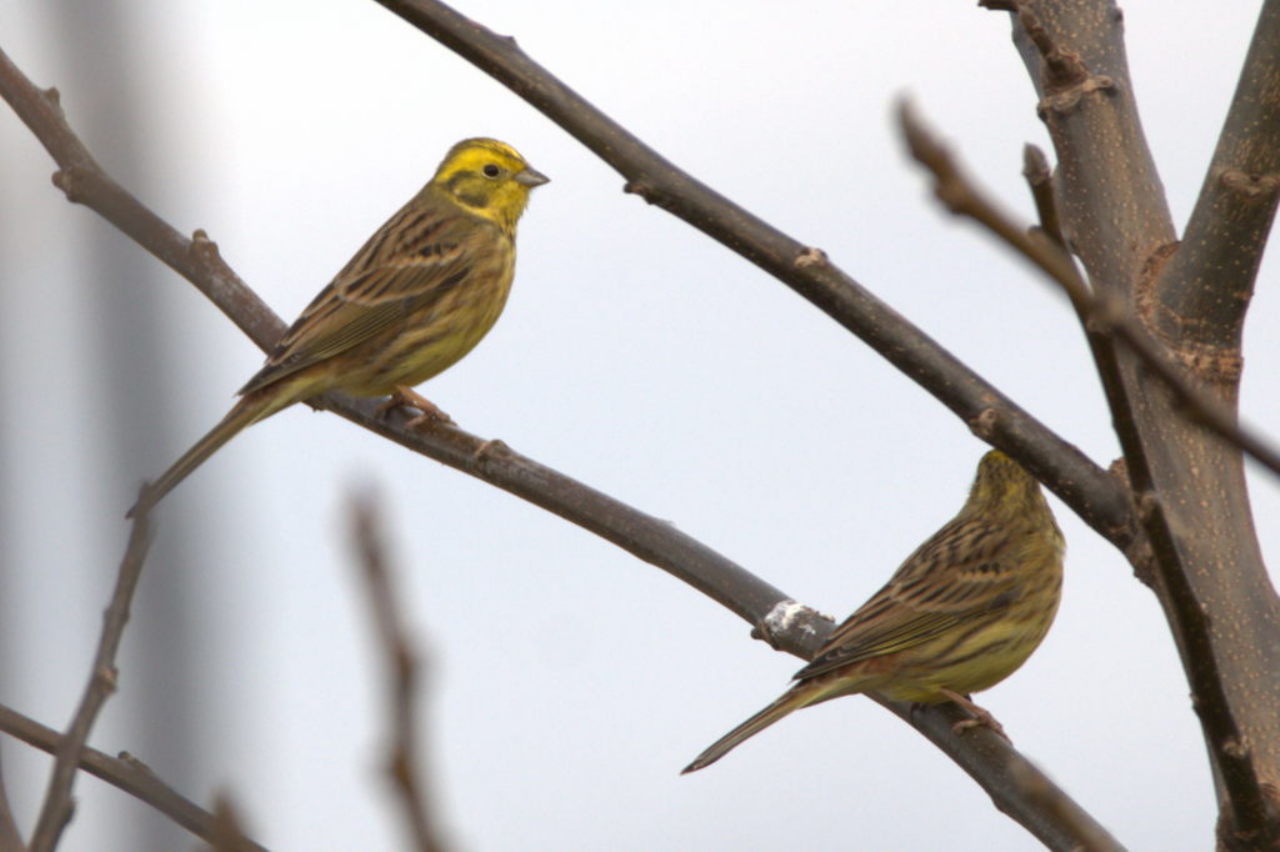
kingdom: Animalia
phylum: Chordata
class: Aves
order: Passeriformes
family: Emberizidae
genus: Emberiza
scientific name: Emberiza citrinella
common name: Yellowhammer
